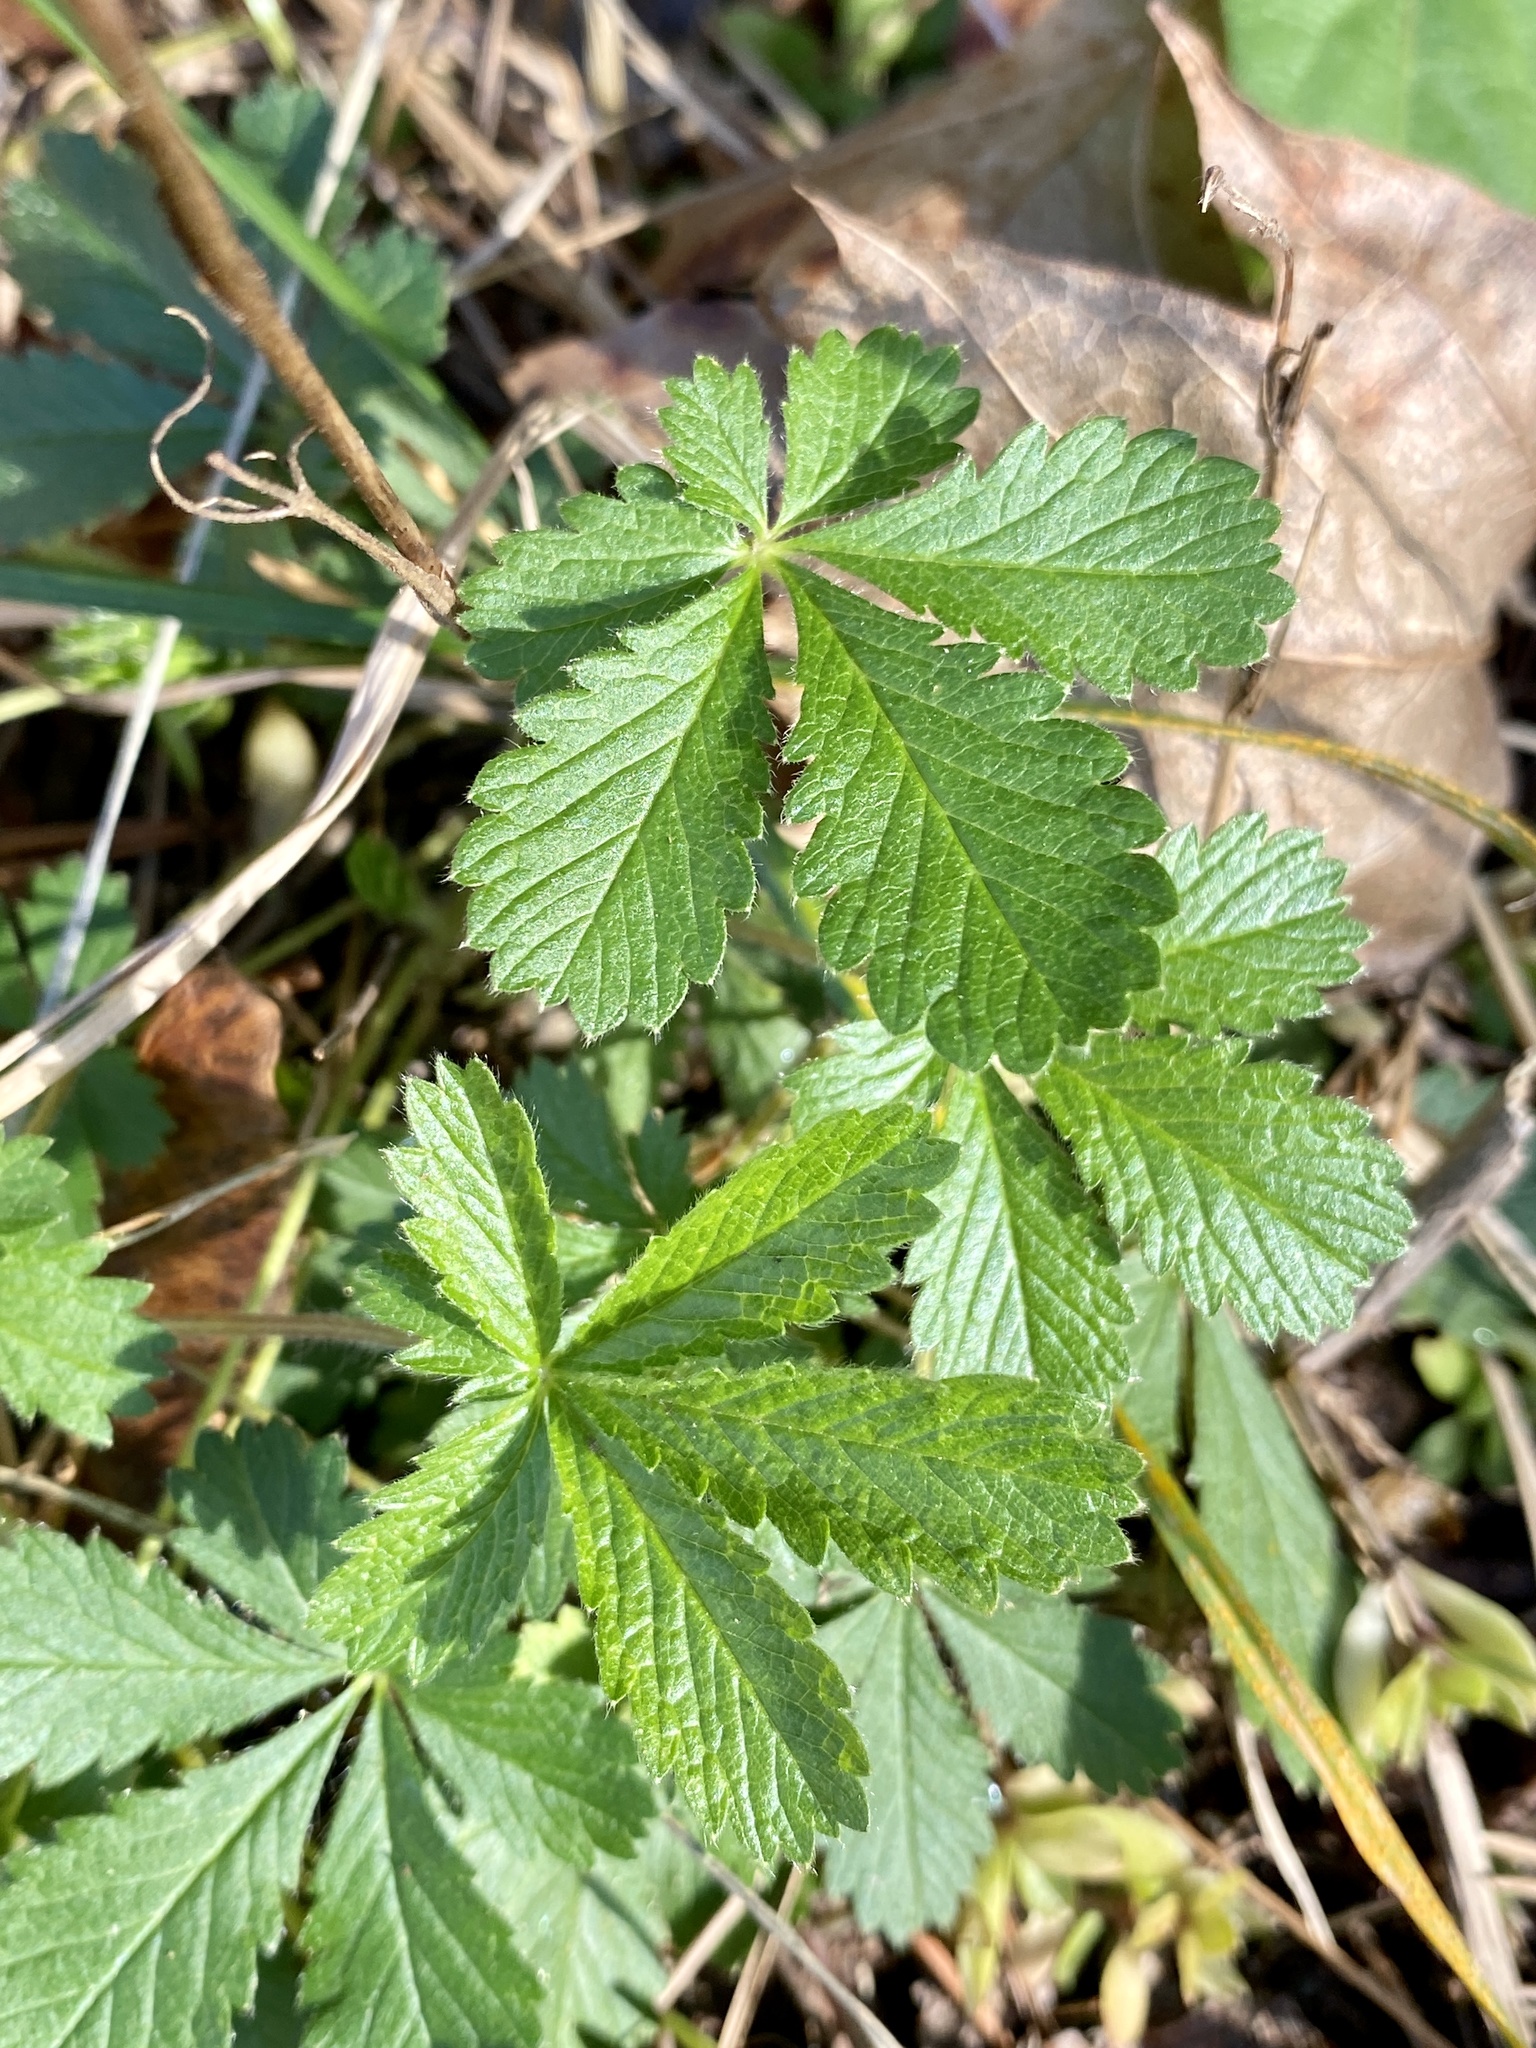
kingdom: Plantae
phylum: Tracheophyta
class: Magnoliopsida
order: Rosales
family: Rosaceae
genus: Potentilla
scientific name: Potentilla simplex
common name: Old field cinquefoil
